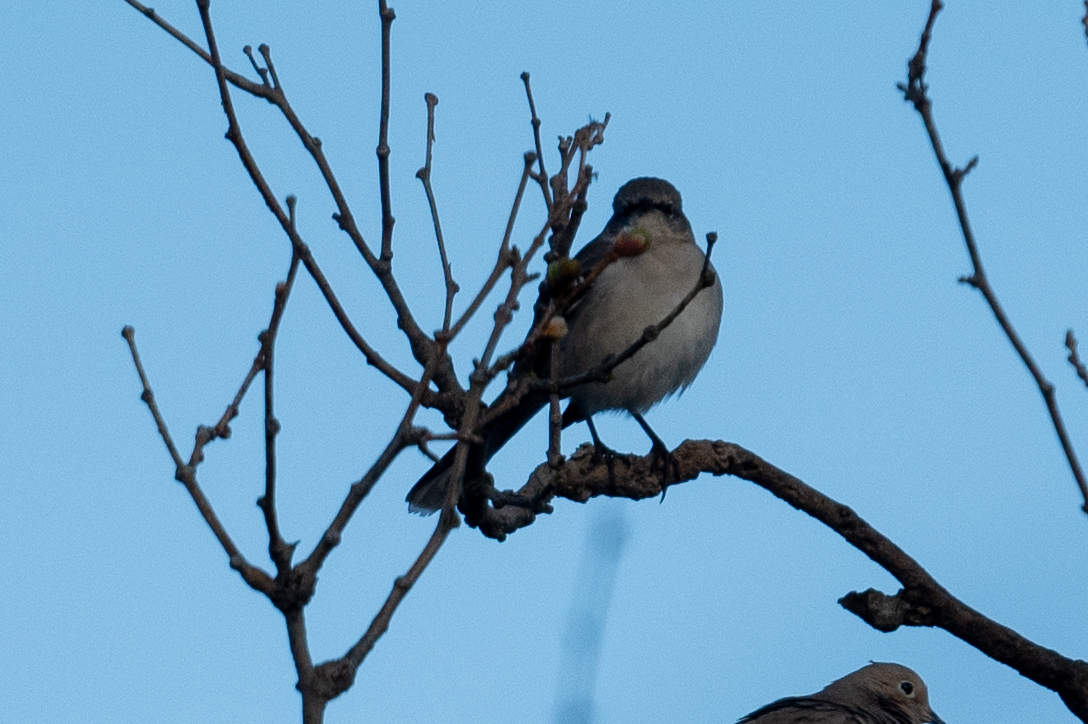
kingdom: Animalia
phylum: Chordata
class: Aves
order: Passeriformes
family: Mimidae
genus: Mimus
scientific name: Mimus polyglottos
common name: Northern mockingbird
